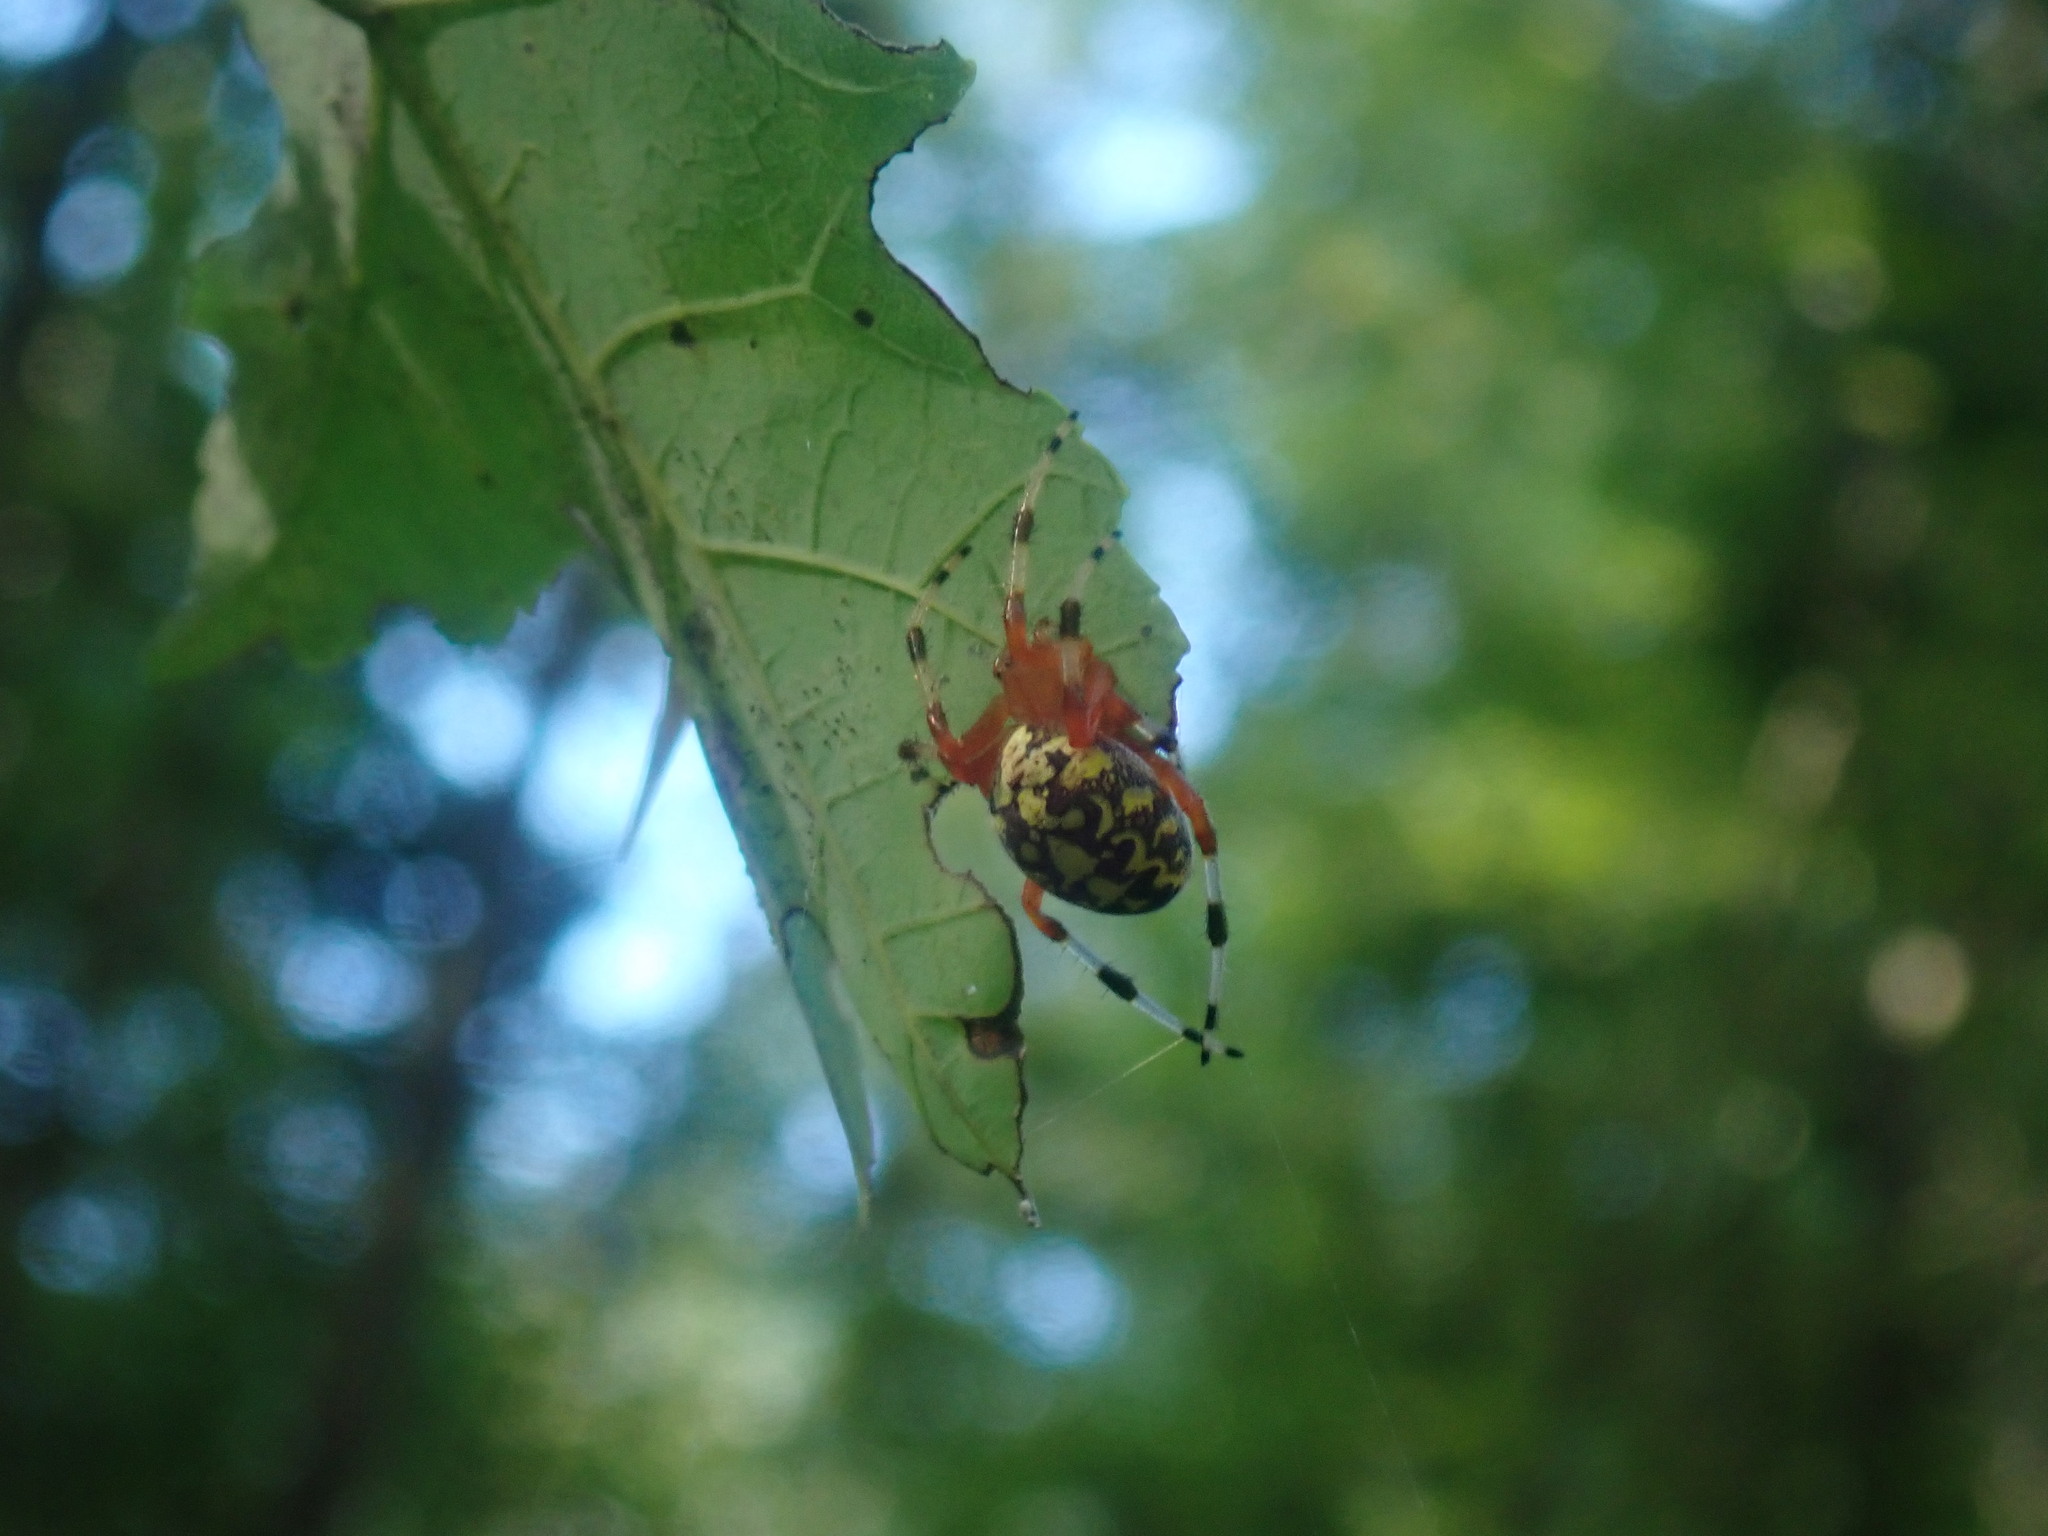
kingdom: Animalia
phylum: Arthropoda
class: Arachnida
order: Araneae
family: Araneidae
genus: Araneus
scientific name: Araneus marmoreus
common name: Marbled orbweaver
